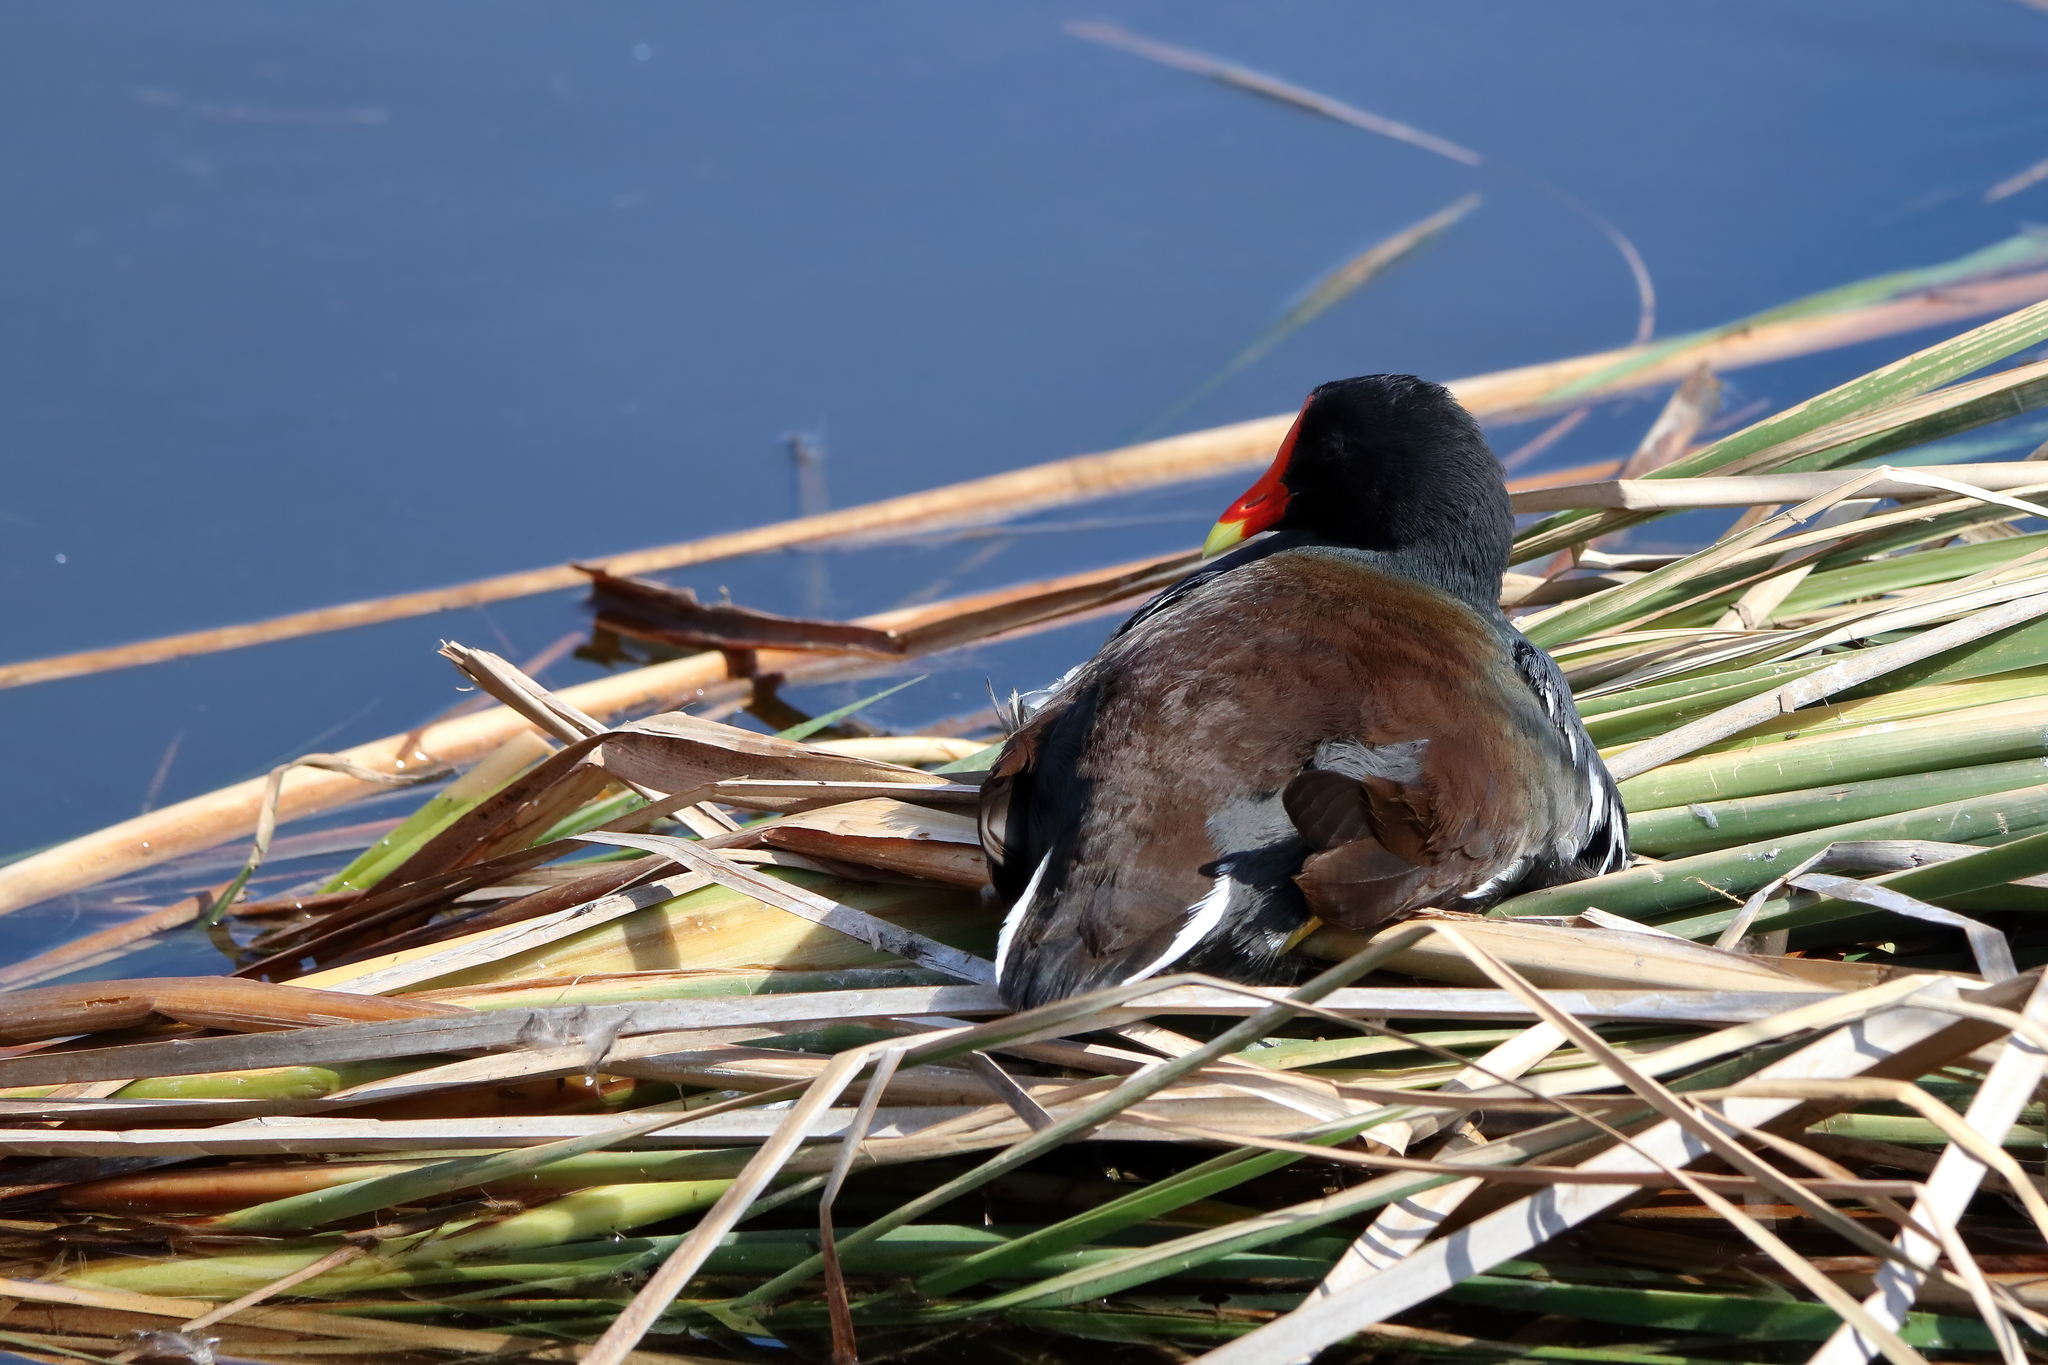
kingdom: Animalia
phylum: Chordata
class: Aves
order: Gruiformes
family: Rallidae
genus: Gallinula
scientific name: Gallinula chloropus
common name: Common moorhen
